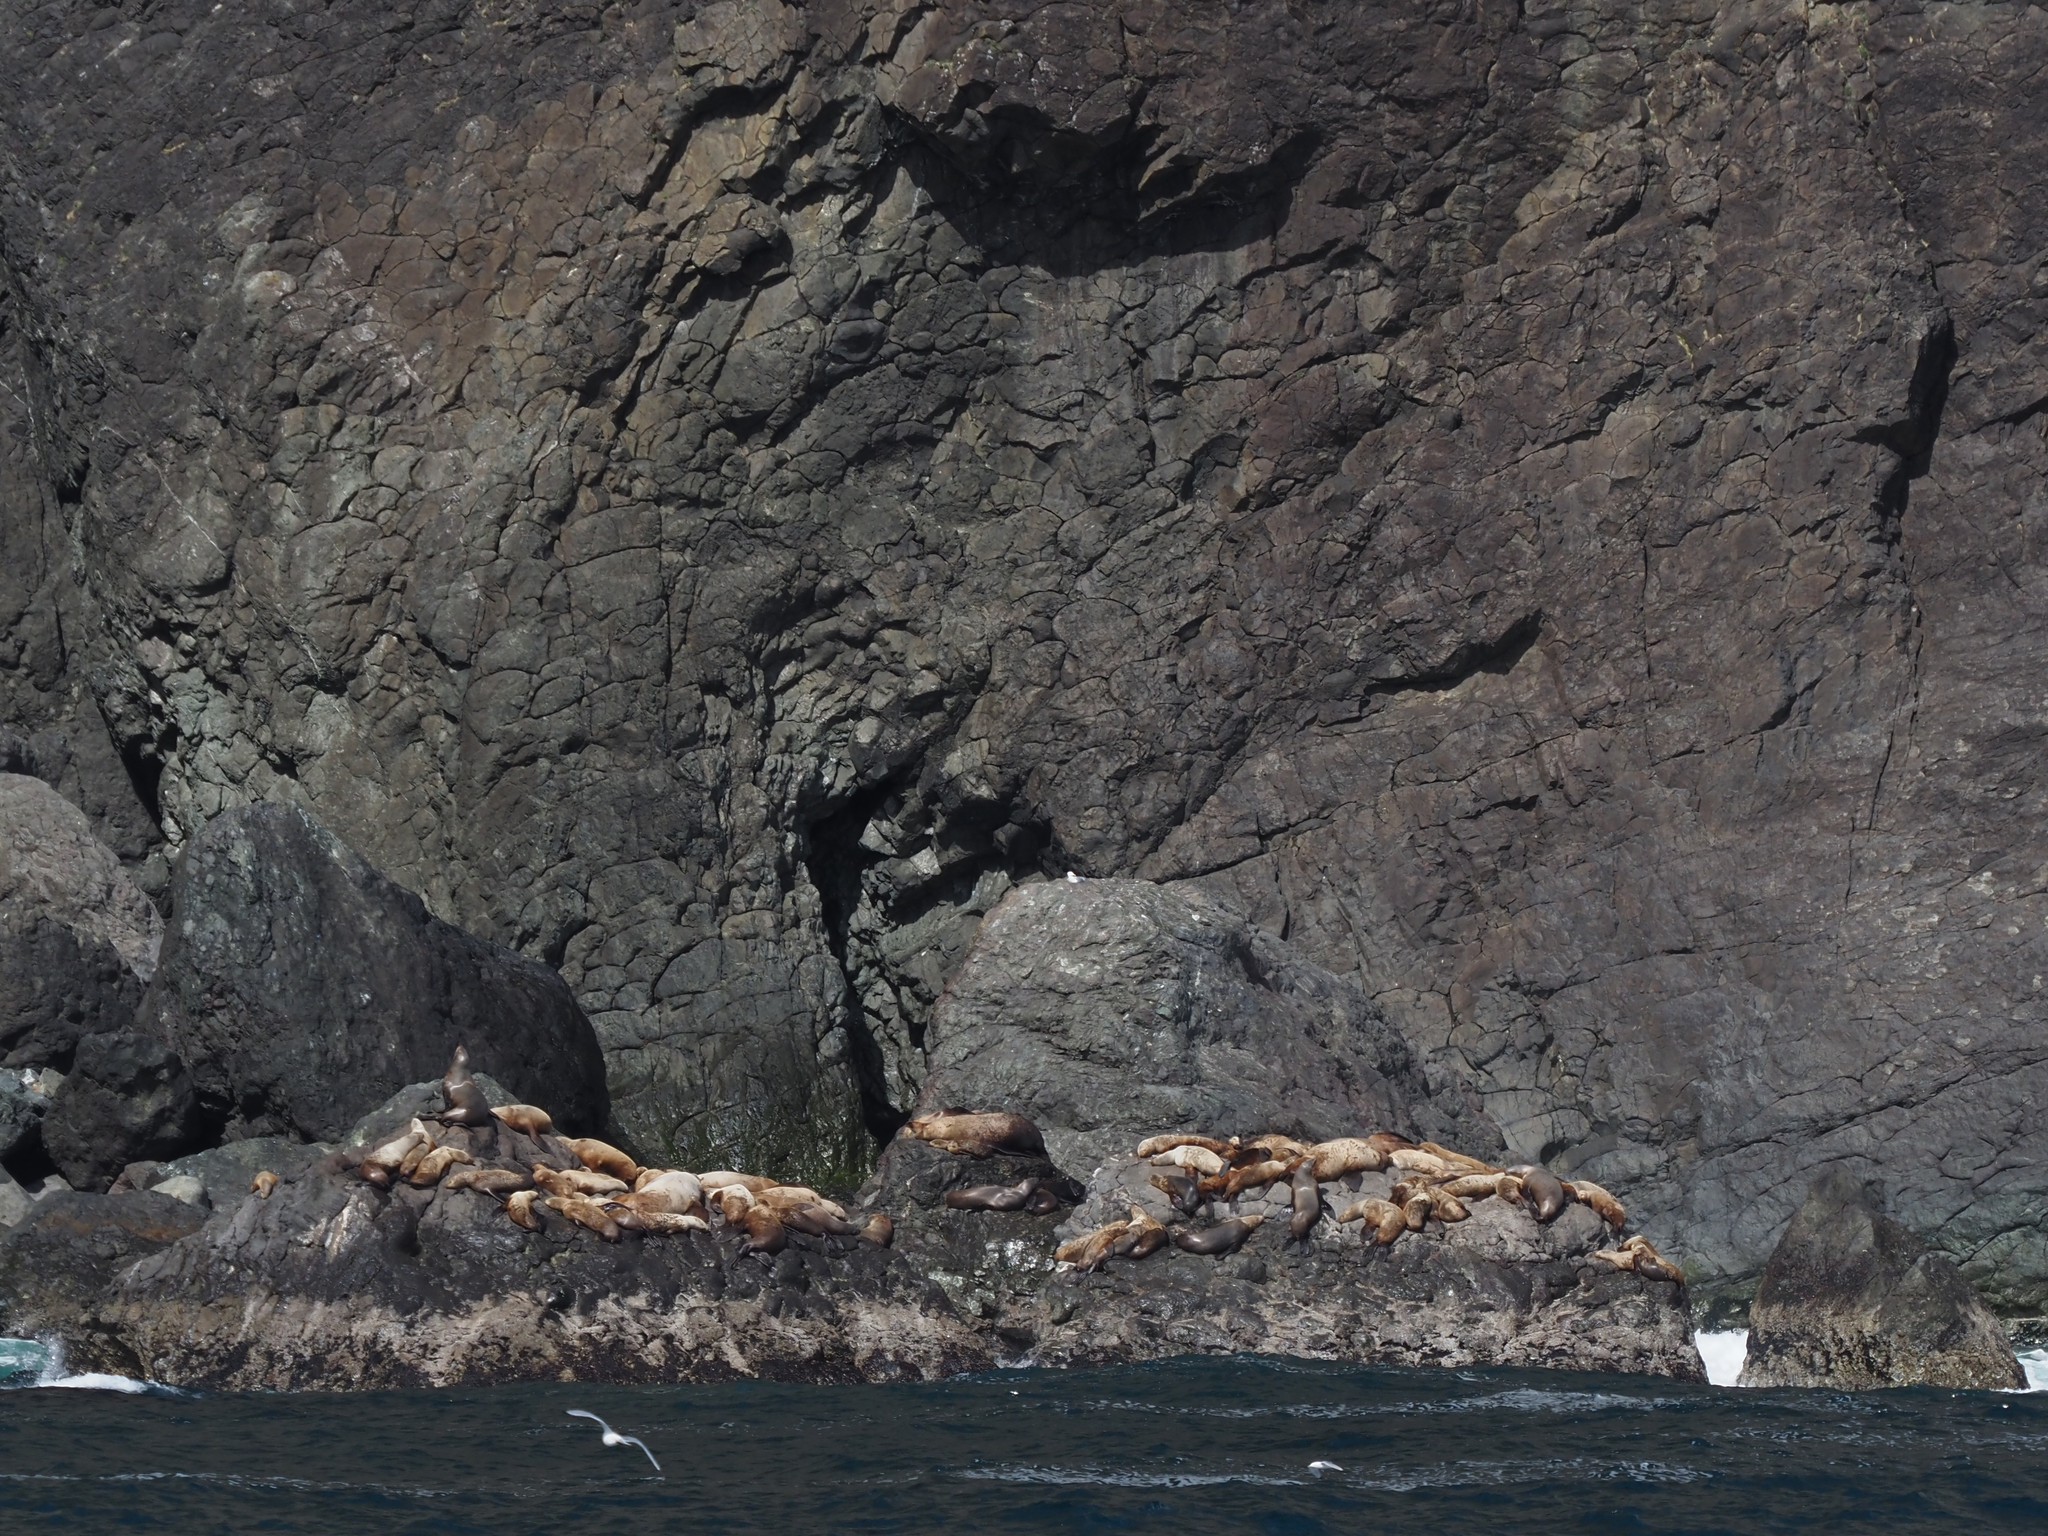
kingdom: Animalia
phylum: Chordata
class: Mammalia
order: Carnivora
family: Otariidae
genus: Eumetopias
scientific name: Eumetopias jubatus
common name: Steller sea lion
